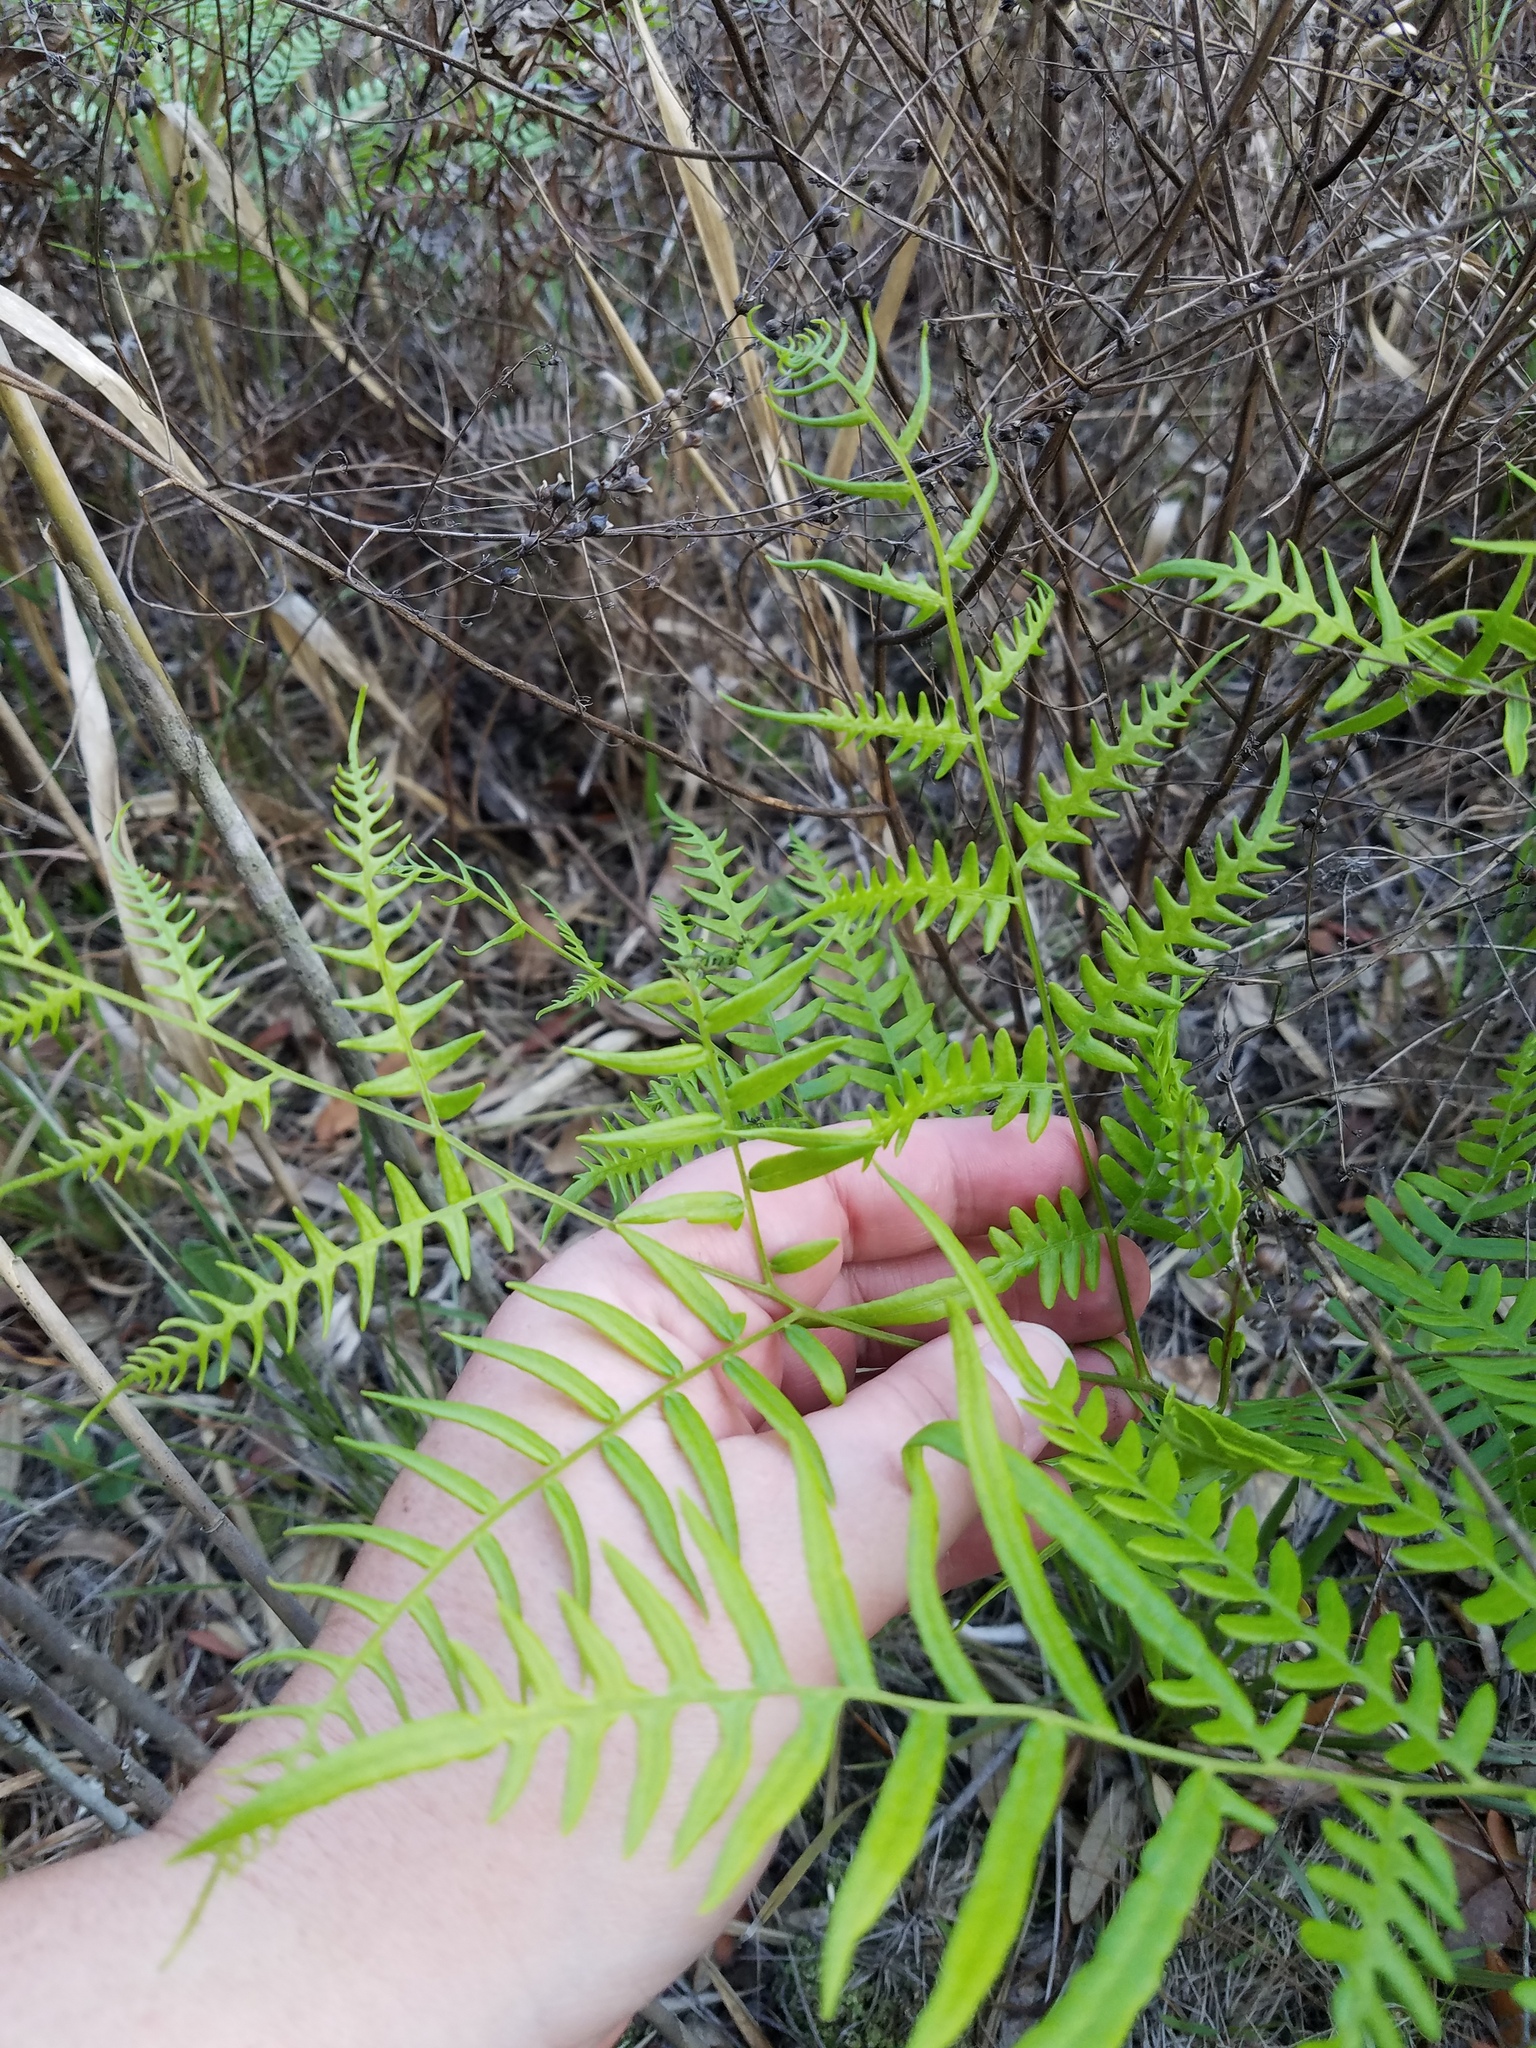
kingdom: Plantae
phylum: Tracheophyta
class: Polypodiopsida
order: Polypodiales
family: Dennstaedtiaceae
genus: Pteridium
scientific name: Pteridium
